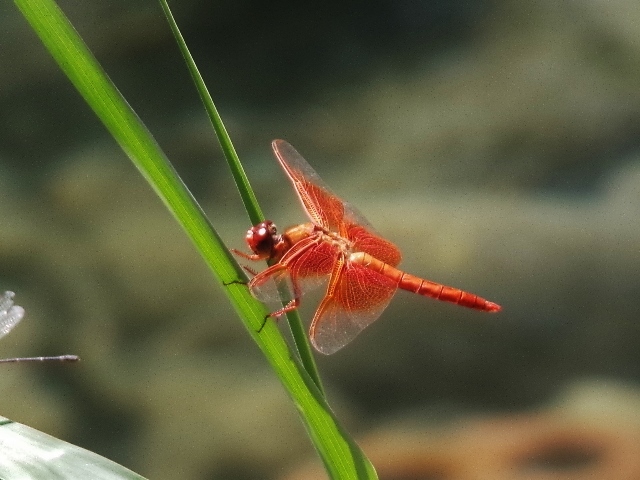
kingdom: Animalia
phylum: Arthropoda
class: Insecta
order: Odonata
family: Libellulidae
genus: Libellula
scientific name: Libellula saturata
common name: Flame skimmer
